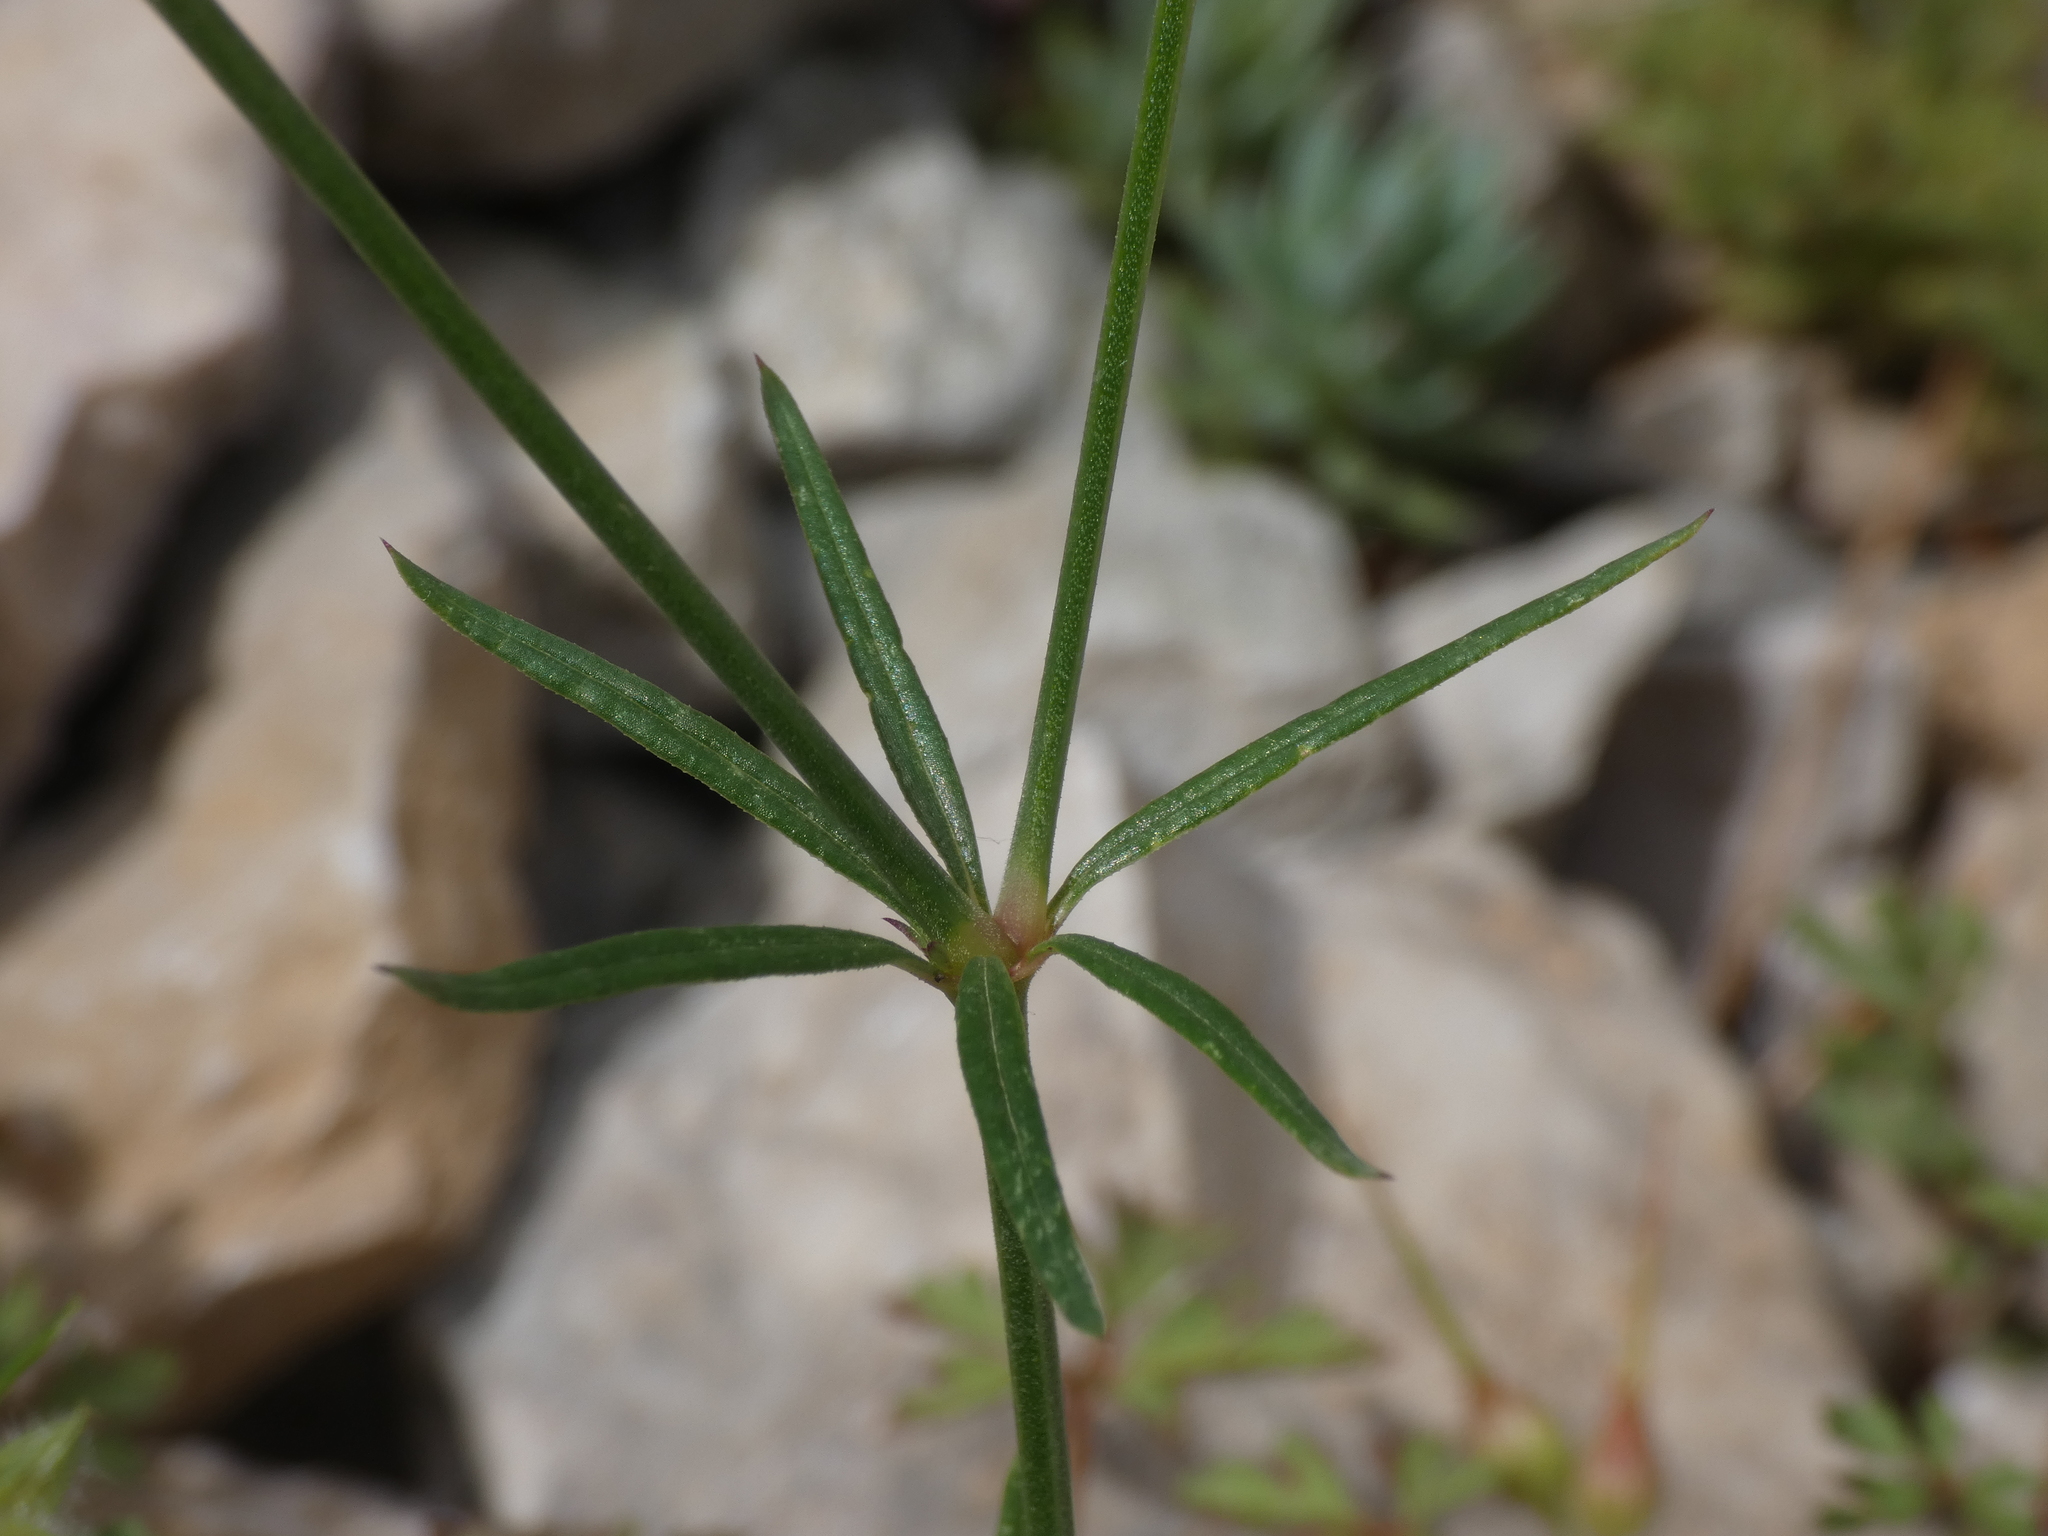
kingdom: Plantae
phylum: Tracheophyta
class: Magnoliopsida
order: Gentianales
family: Rubiaceae
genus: Crucianella
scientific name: Crucianella angustifolia
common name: Narrowleaf crucianella
